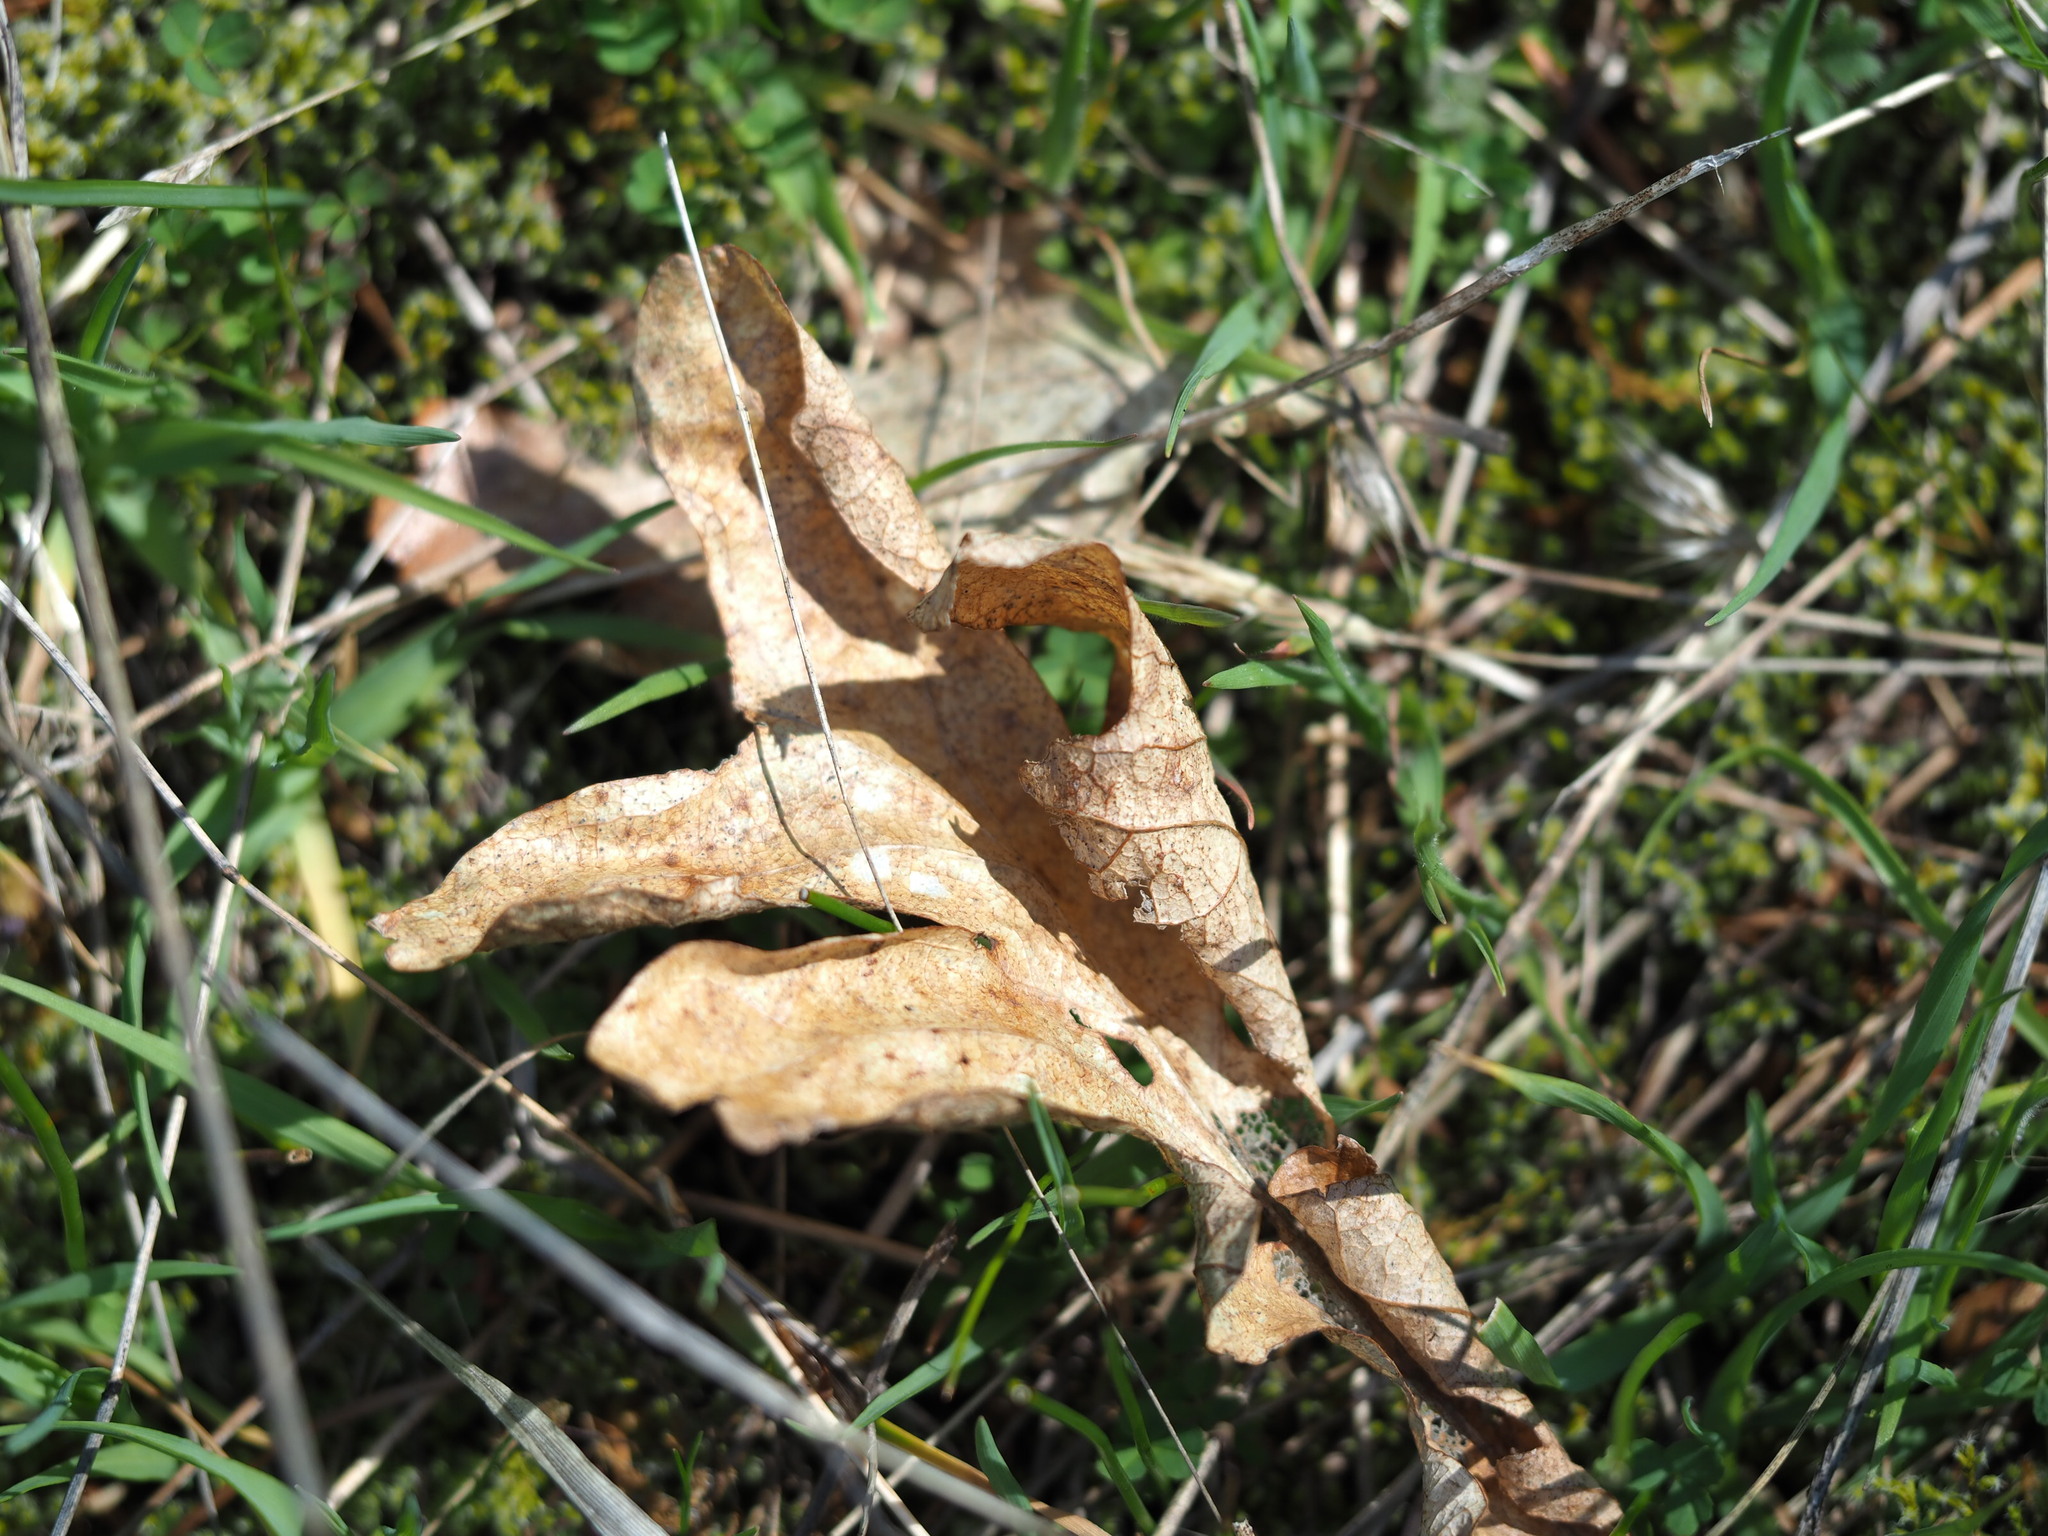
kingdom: Plantae
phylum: Tracheophyta
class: Magnoliopsida
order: Fagales
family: Fagaceae
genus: Quercus
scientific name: Quercus garryana
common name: Garry oak
